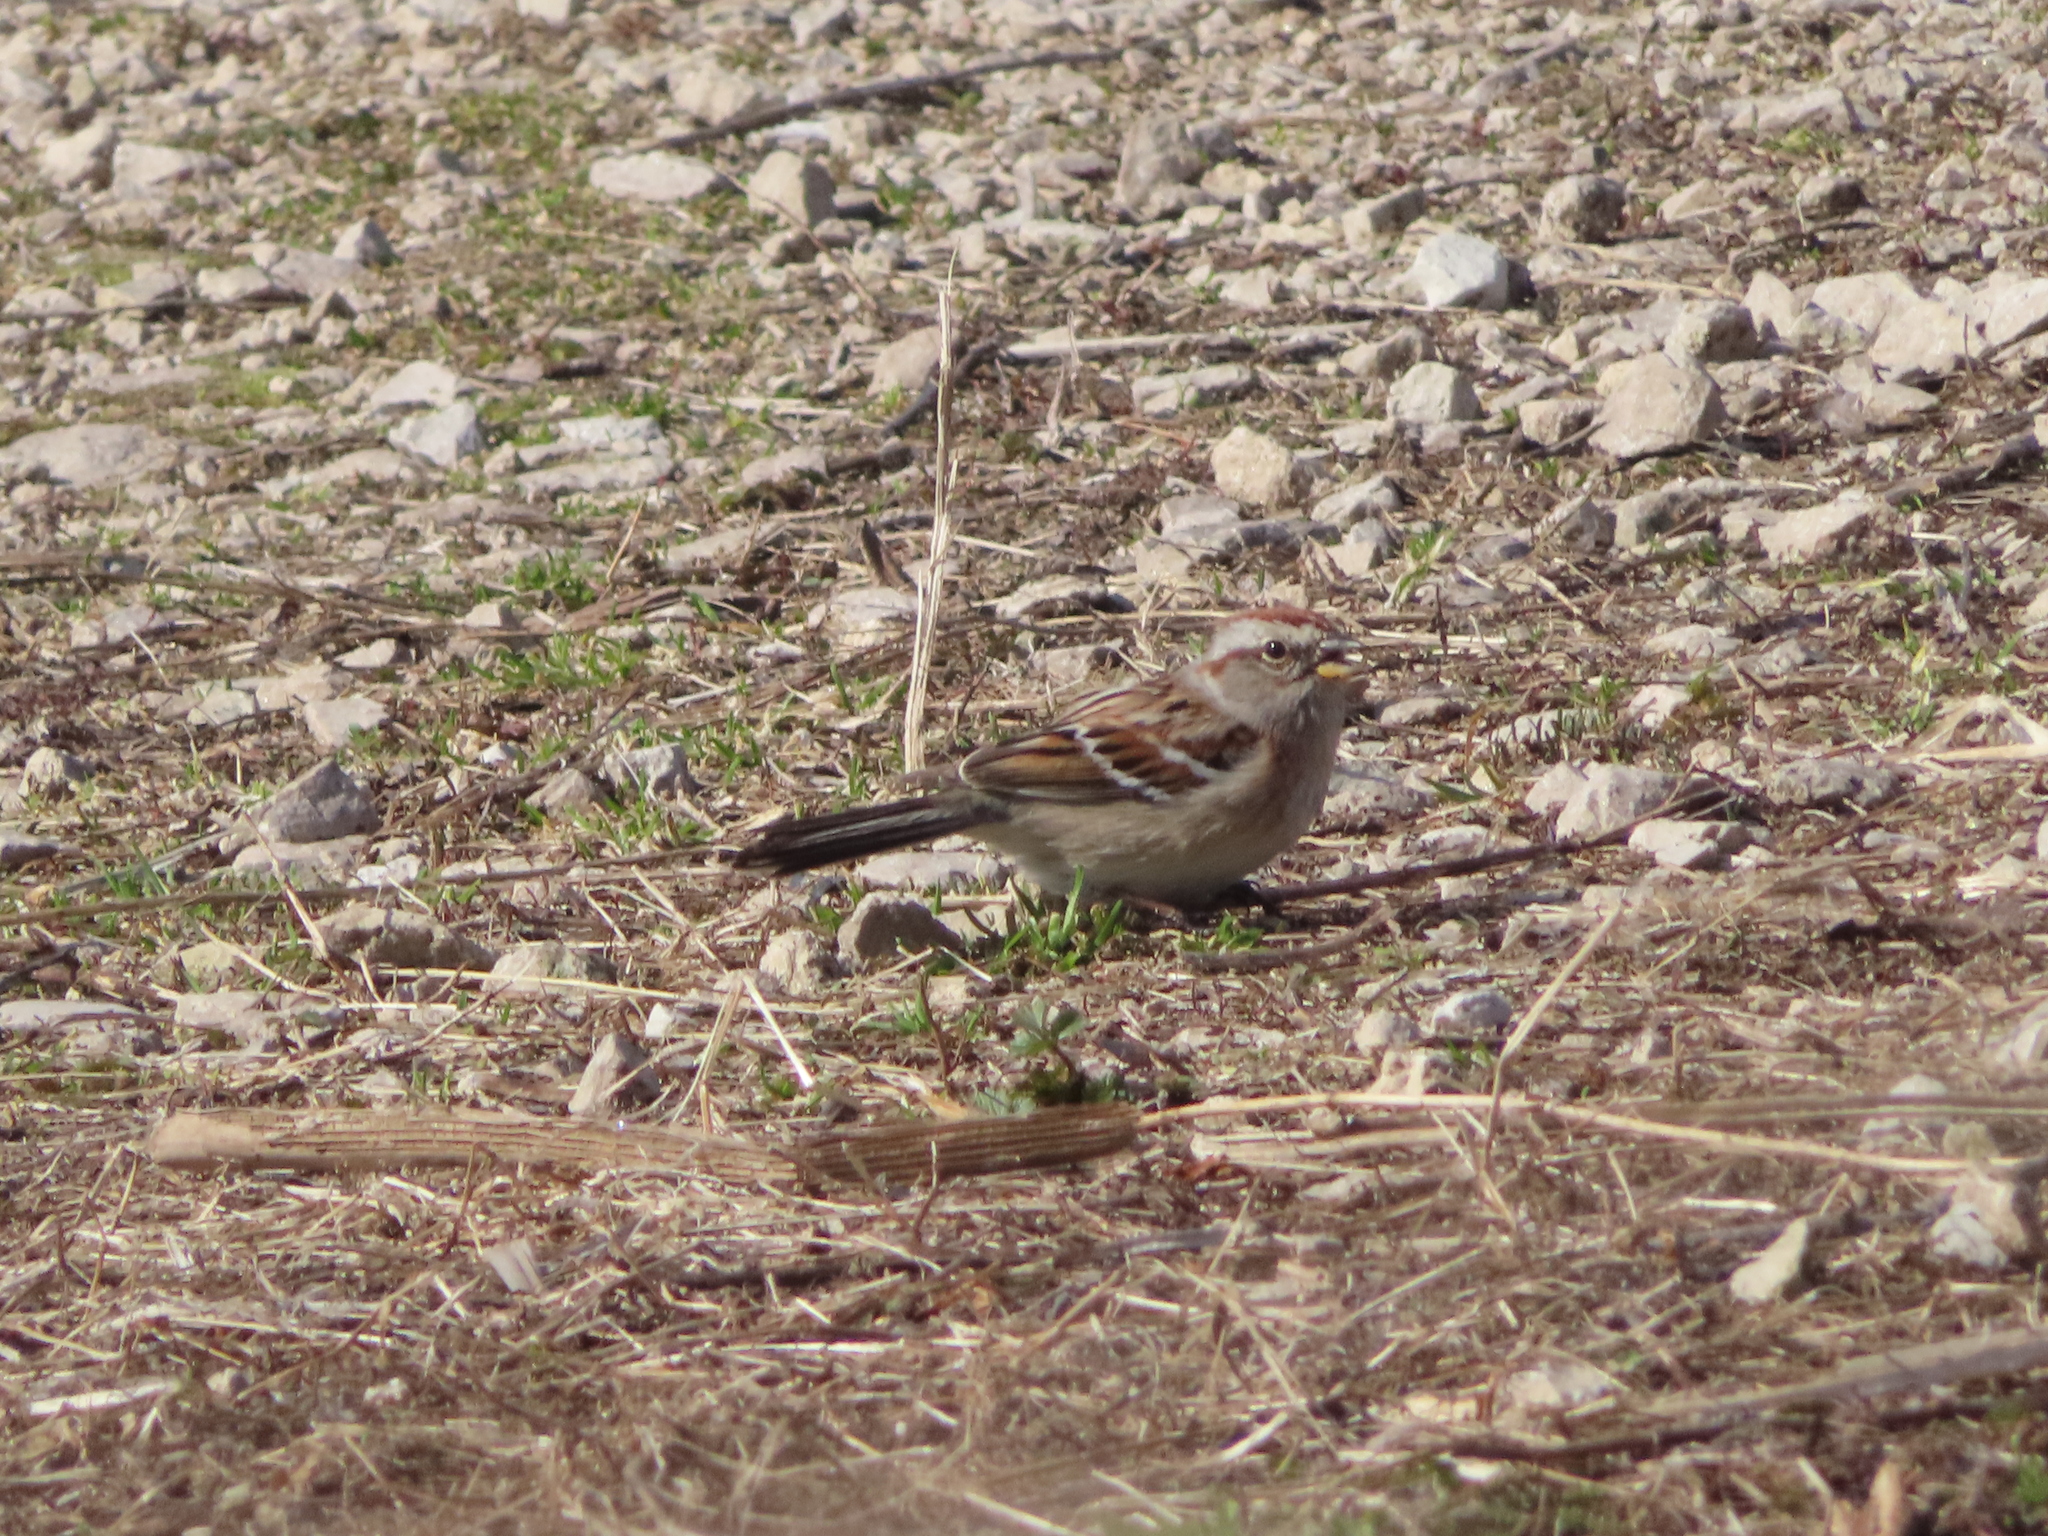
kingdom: Animalia
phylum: Chordata
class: Aves
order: Passeriformes
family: Passerellidae
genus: Spizelloides
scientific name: Spizelloides arborea
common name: American tree sparrow
